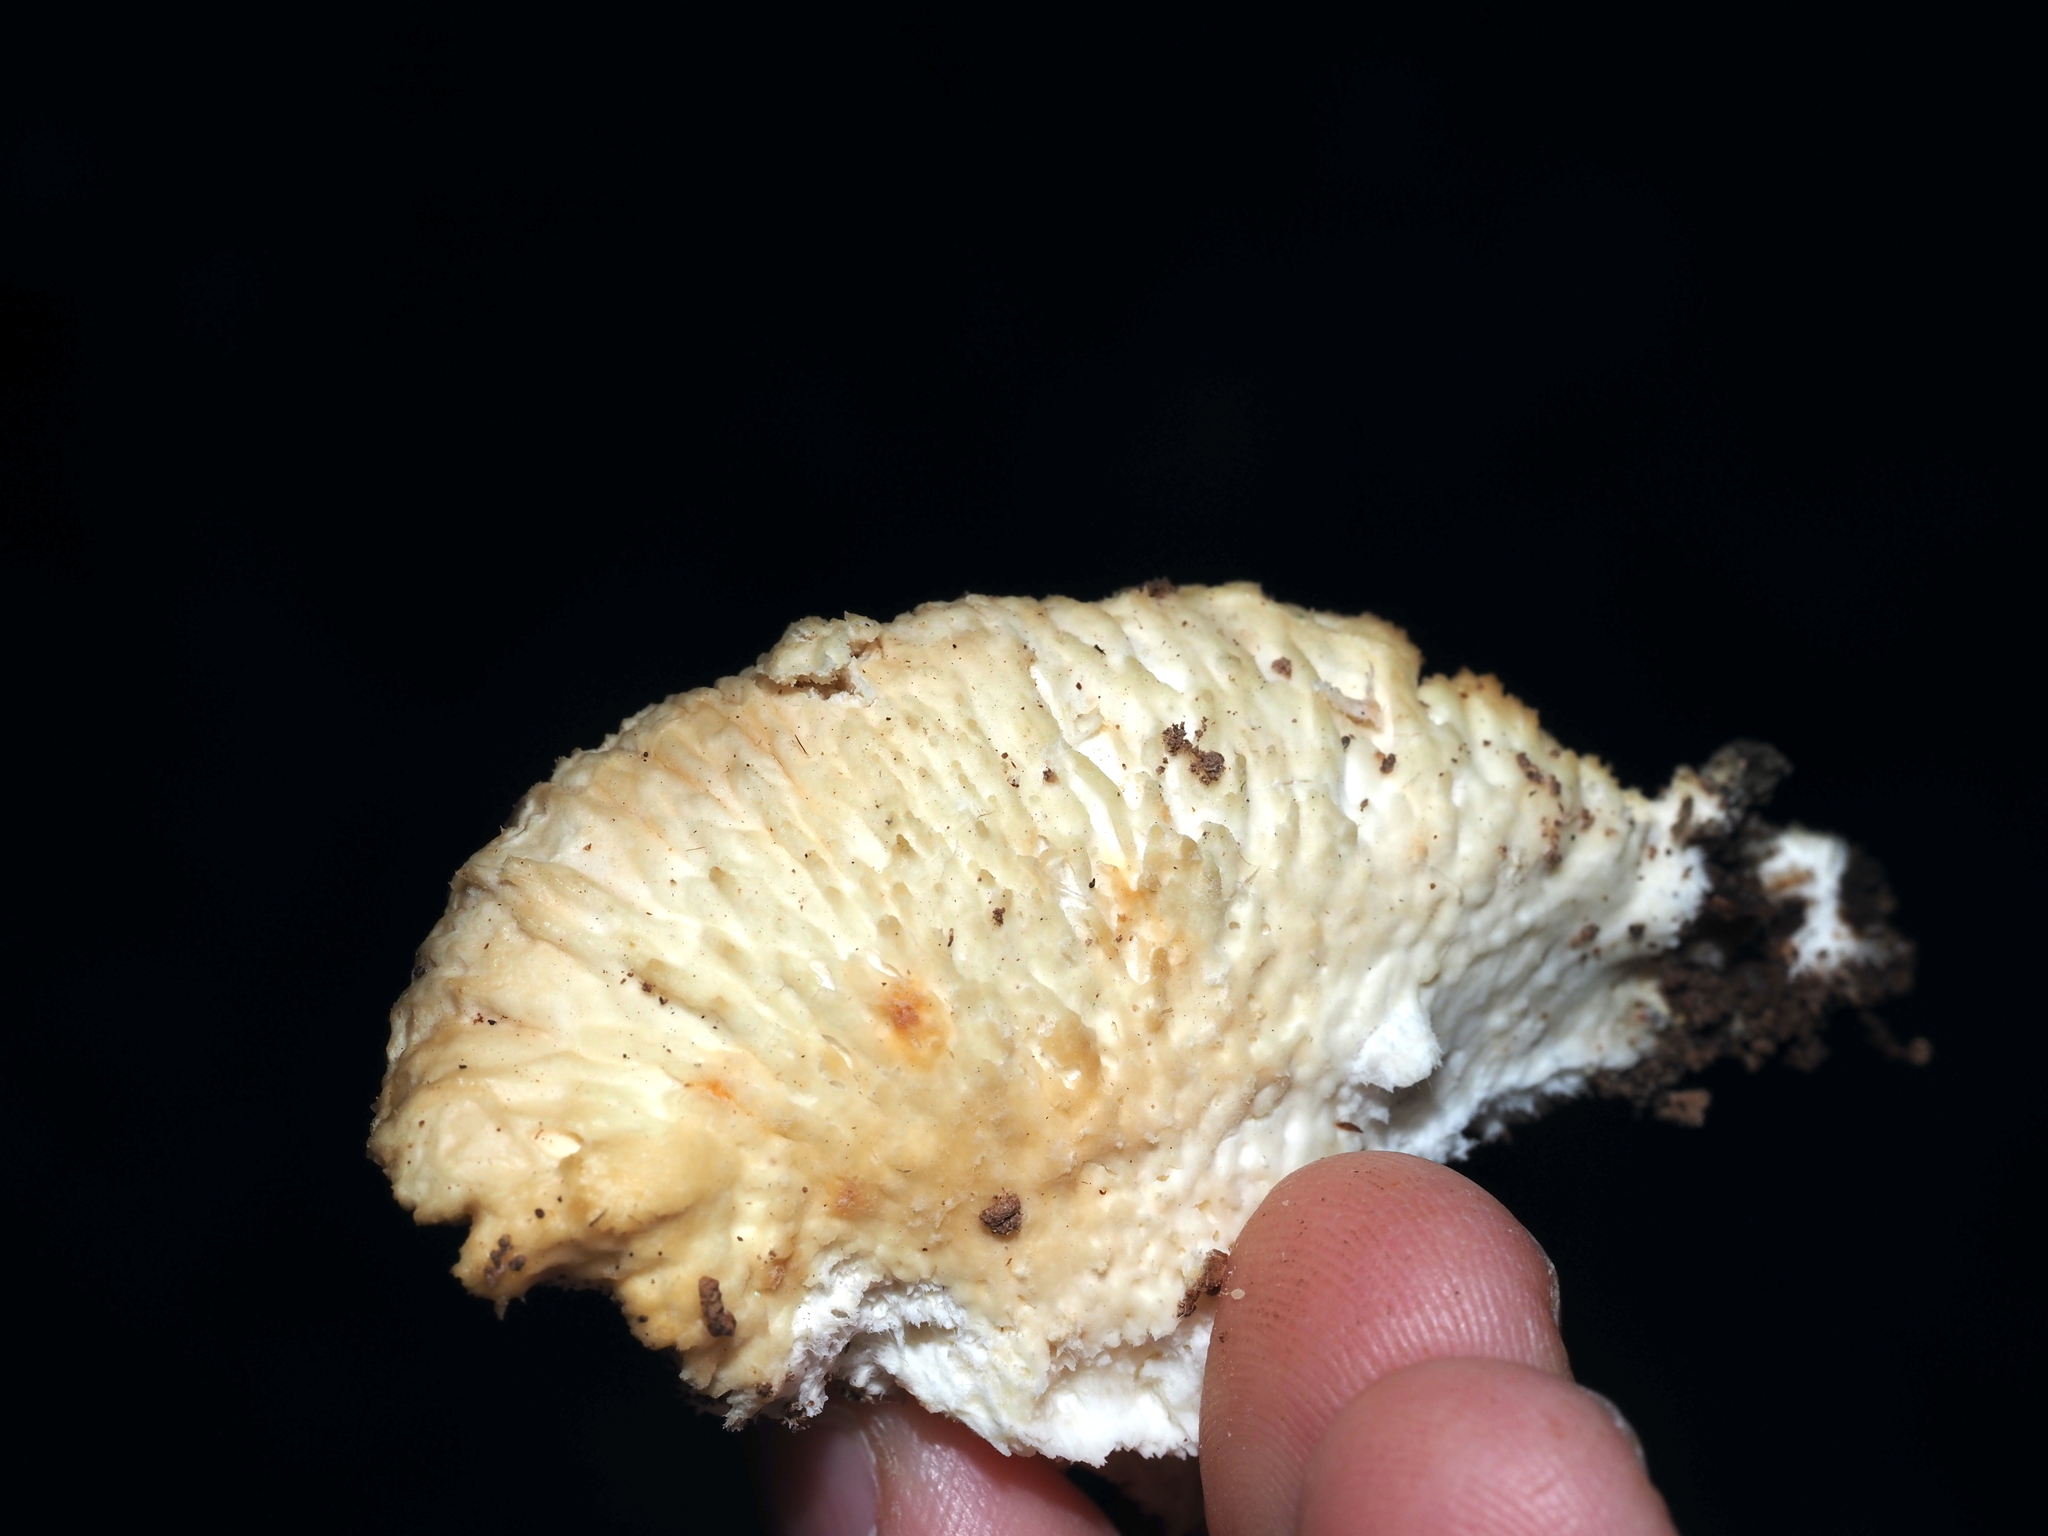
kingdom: Fungi
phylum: Basidiomycota
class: Agaricomycetes
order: Polyporales
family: Incrustoporiaceae
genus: Tyromyces
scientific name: Tyromyces chioneus
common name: White cheese polypore
